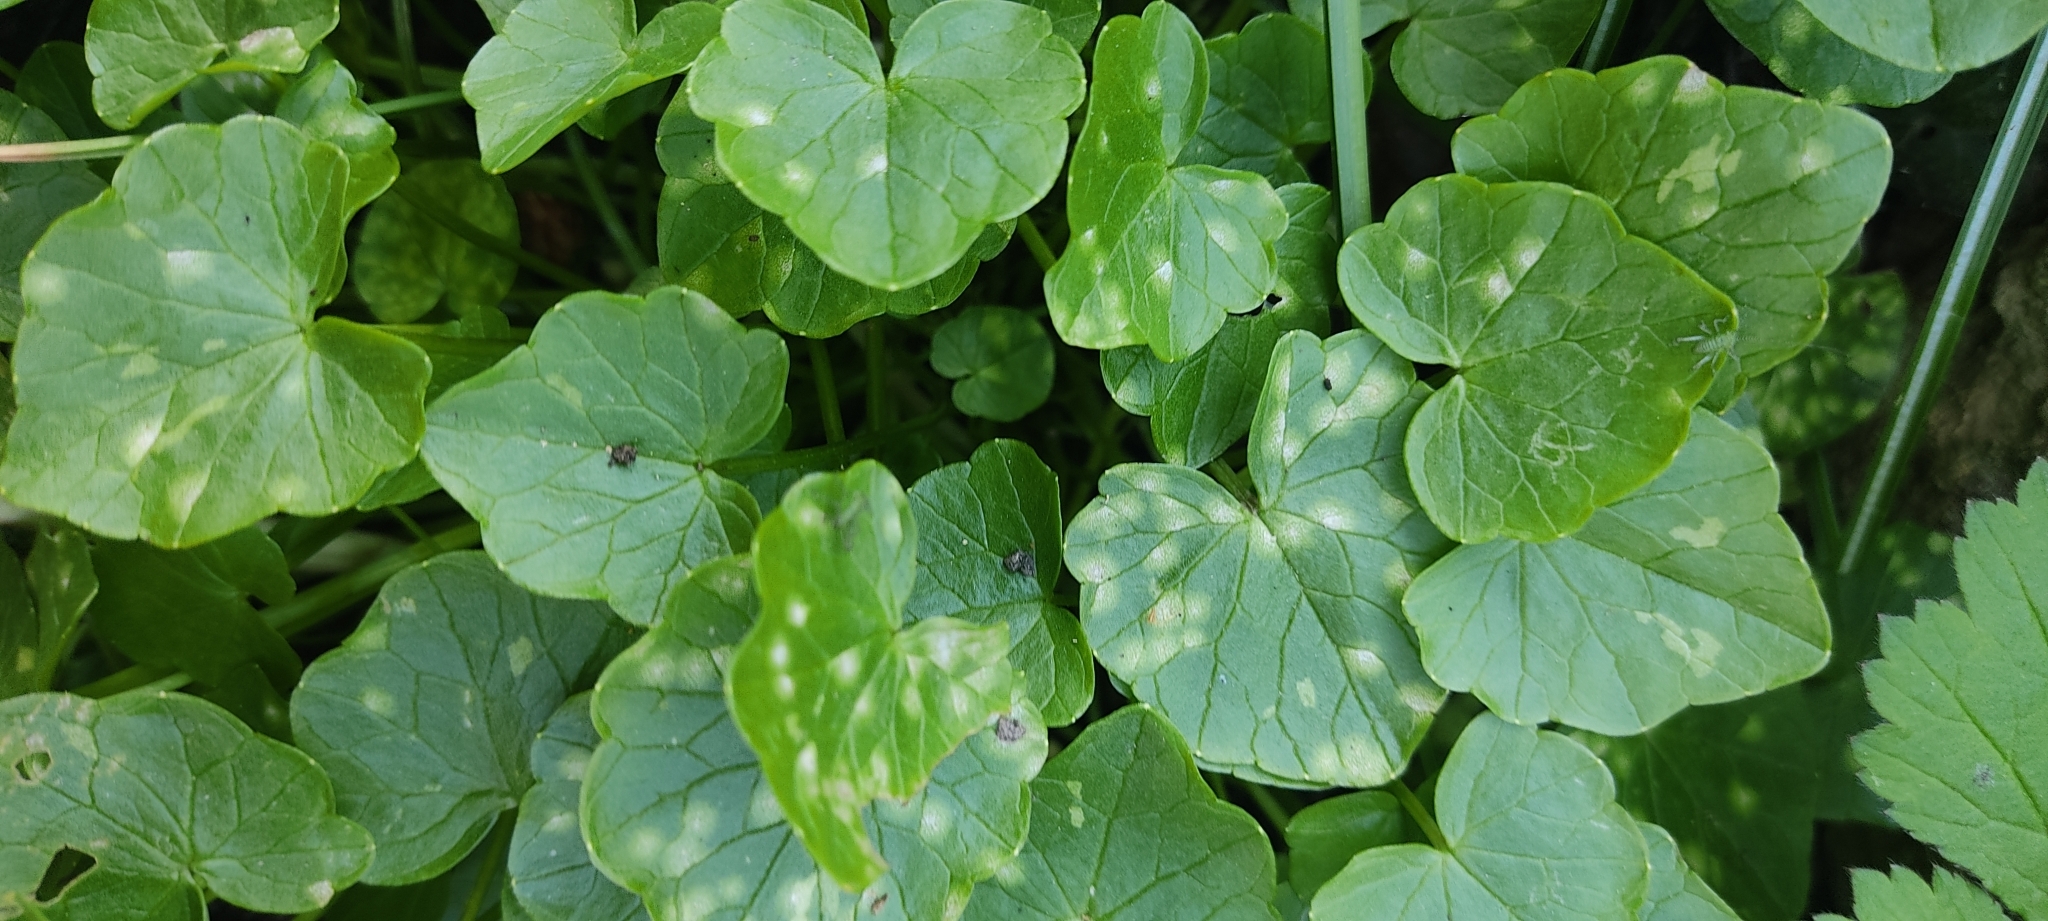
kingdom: Fungi
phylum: Basidiomycota
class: Exobasidiomycetes
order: Entylomatales
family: Entylomataceae
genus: Entyloma
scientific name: Entyloma ficariae
